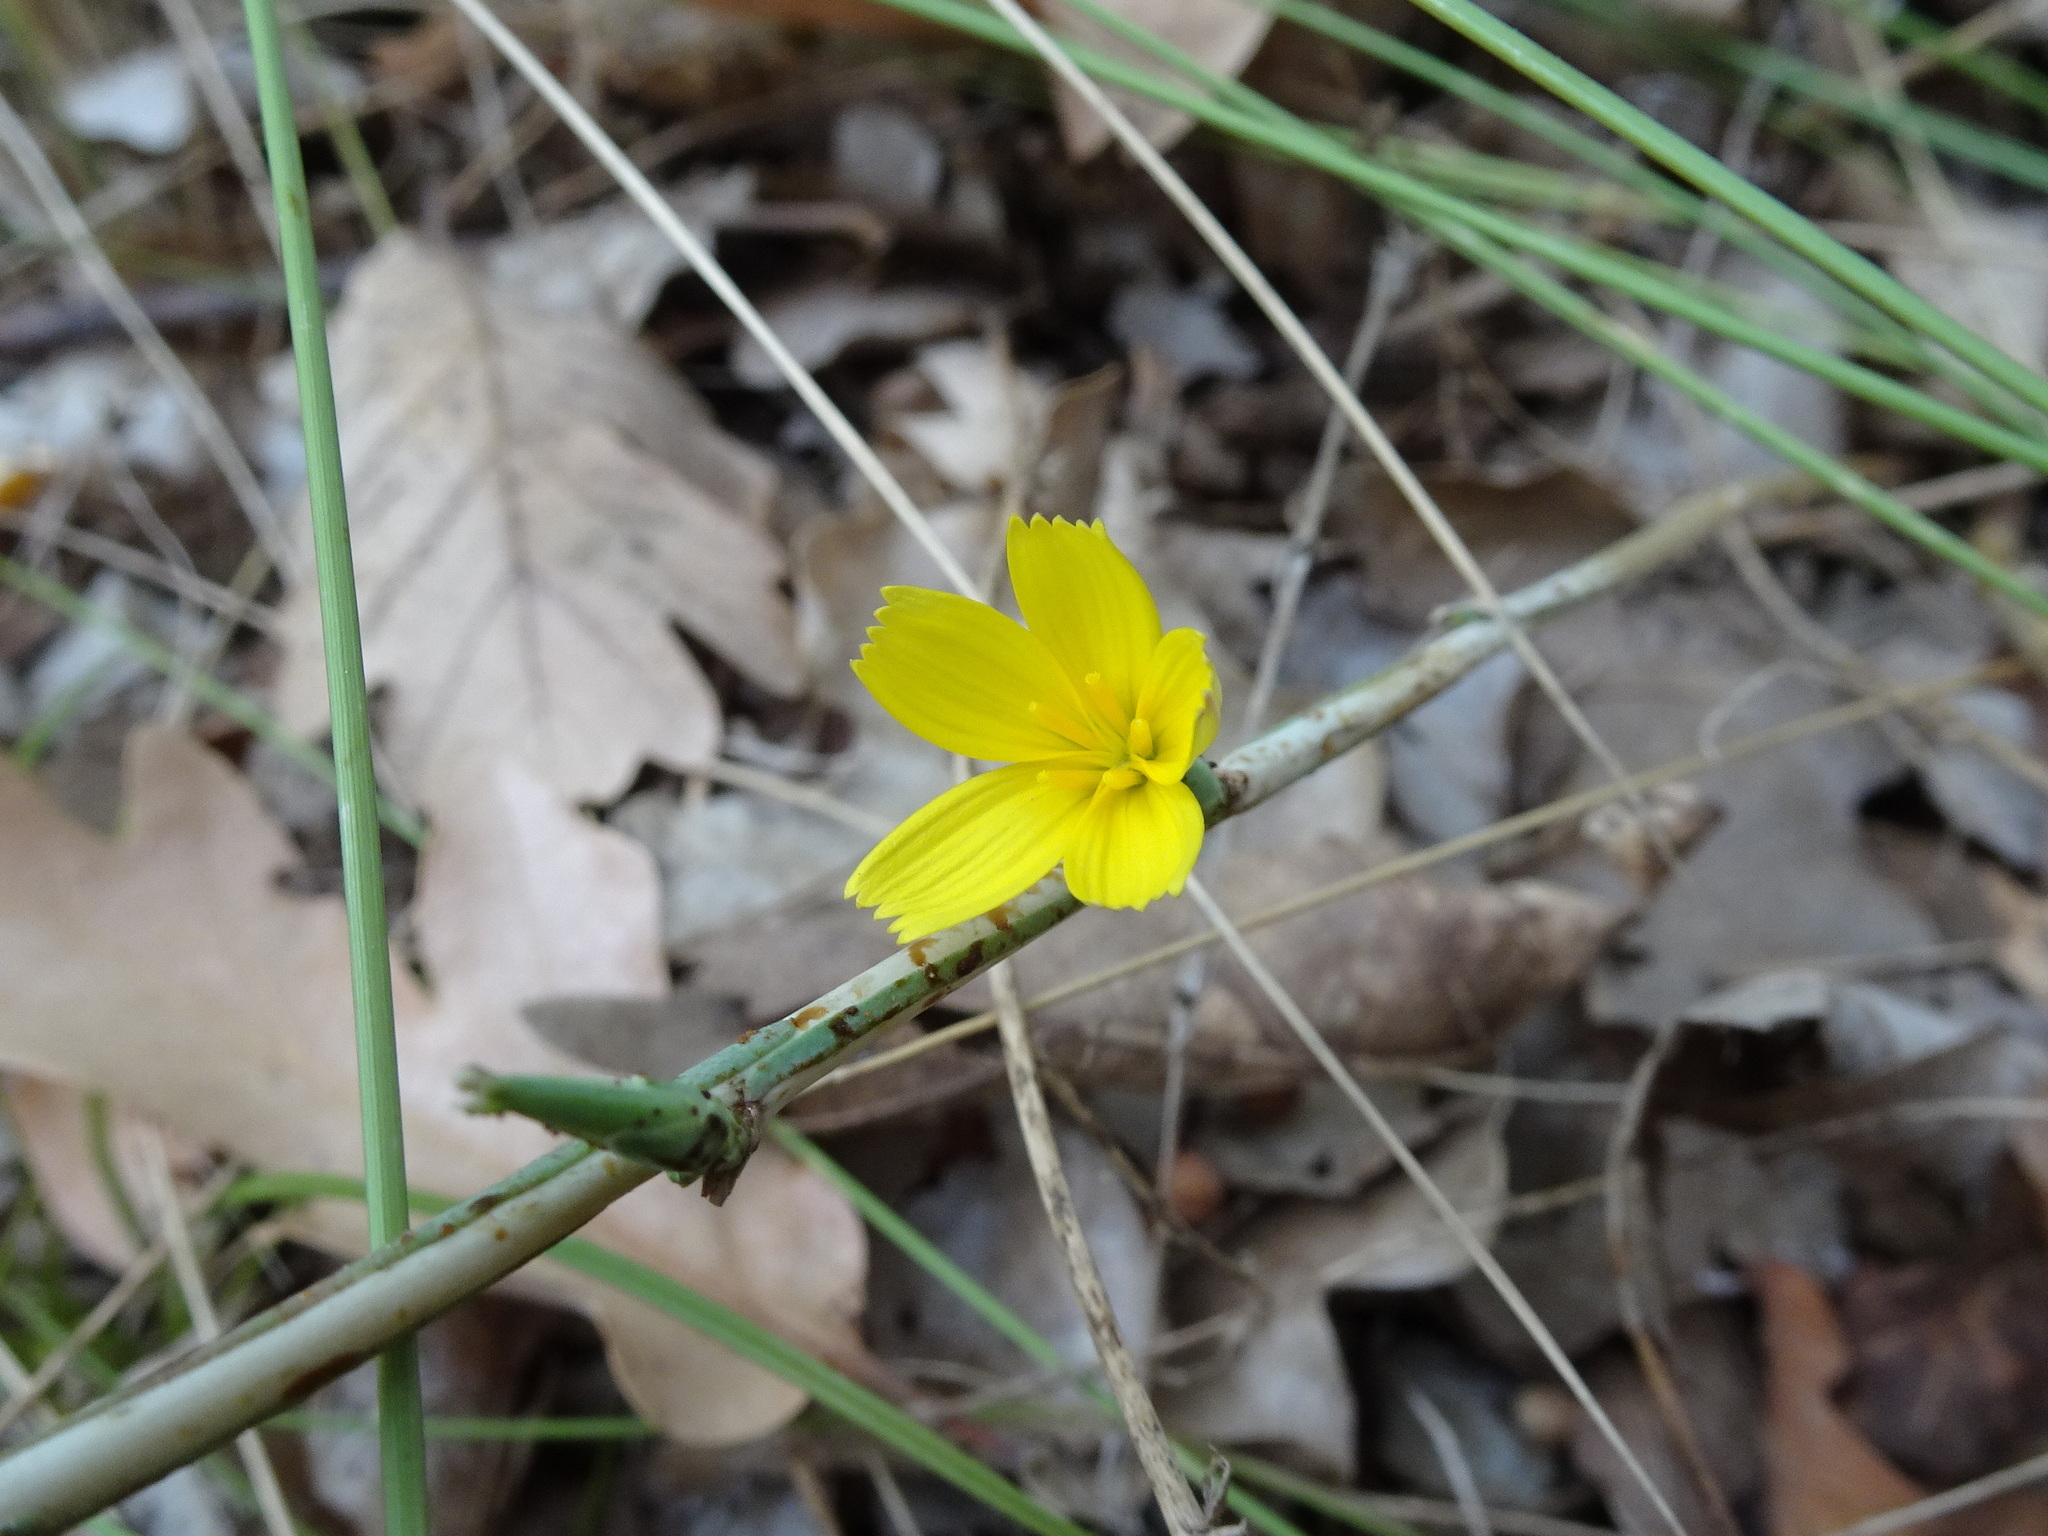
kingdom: Plantae
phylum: Tracheophyta
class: Magnoliopsida
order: Asterales
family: Asteraceae
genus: Lactuca
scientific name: Lactuca viminea
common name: Pliant lettuce
